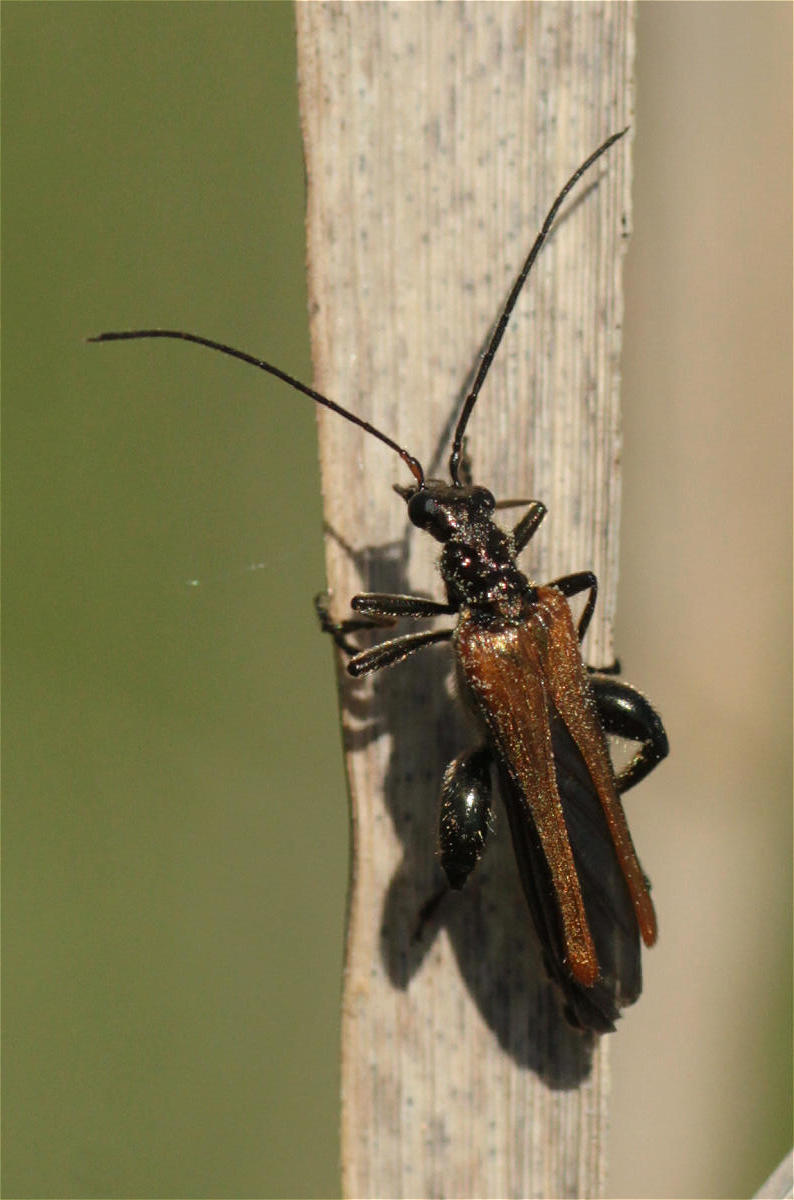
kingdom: Animalia
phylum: Arthropoda
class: Insecta
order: Coleoptera
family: Oedemeridae
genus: Oedemera
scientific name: Oedemera femorata
